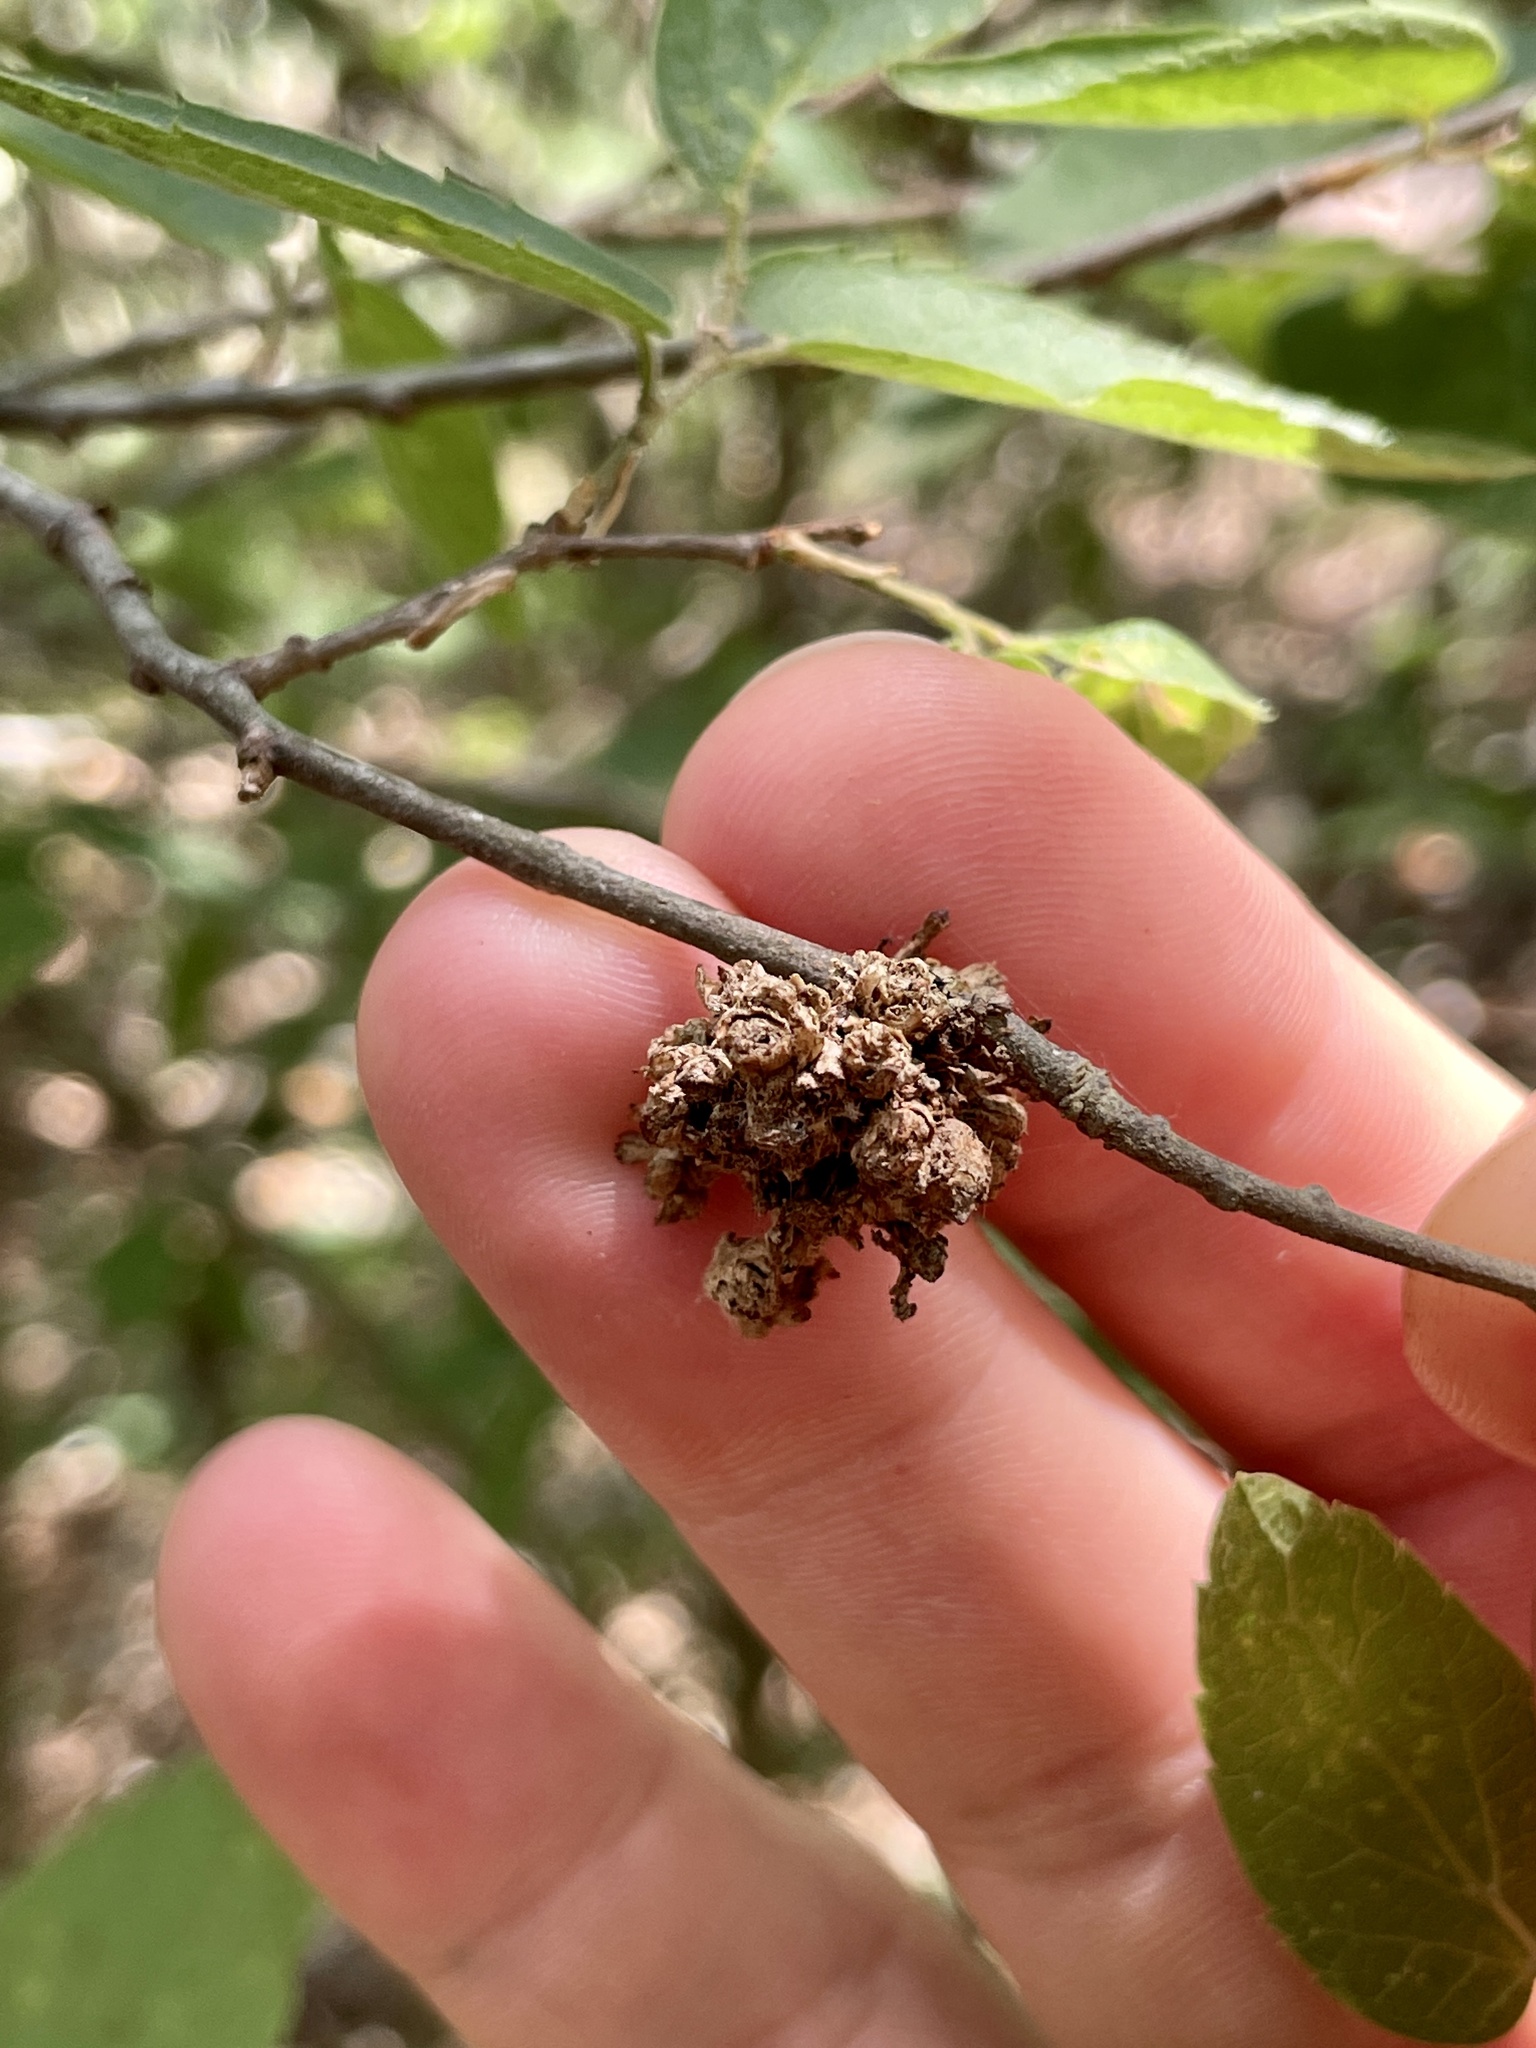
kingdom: Animalia
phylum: Arthropoda
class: Arachnida
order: Trombidiformes
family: Eriophyidae
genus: Aceria
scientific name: Aceria
